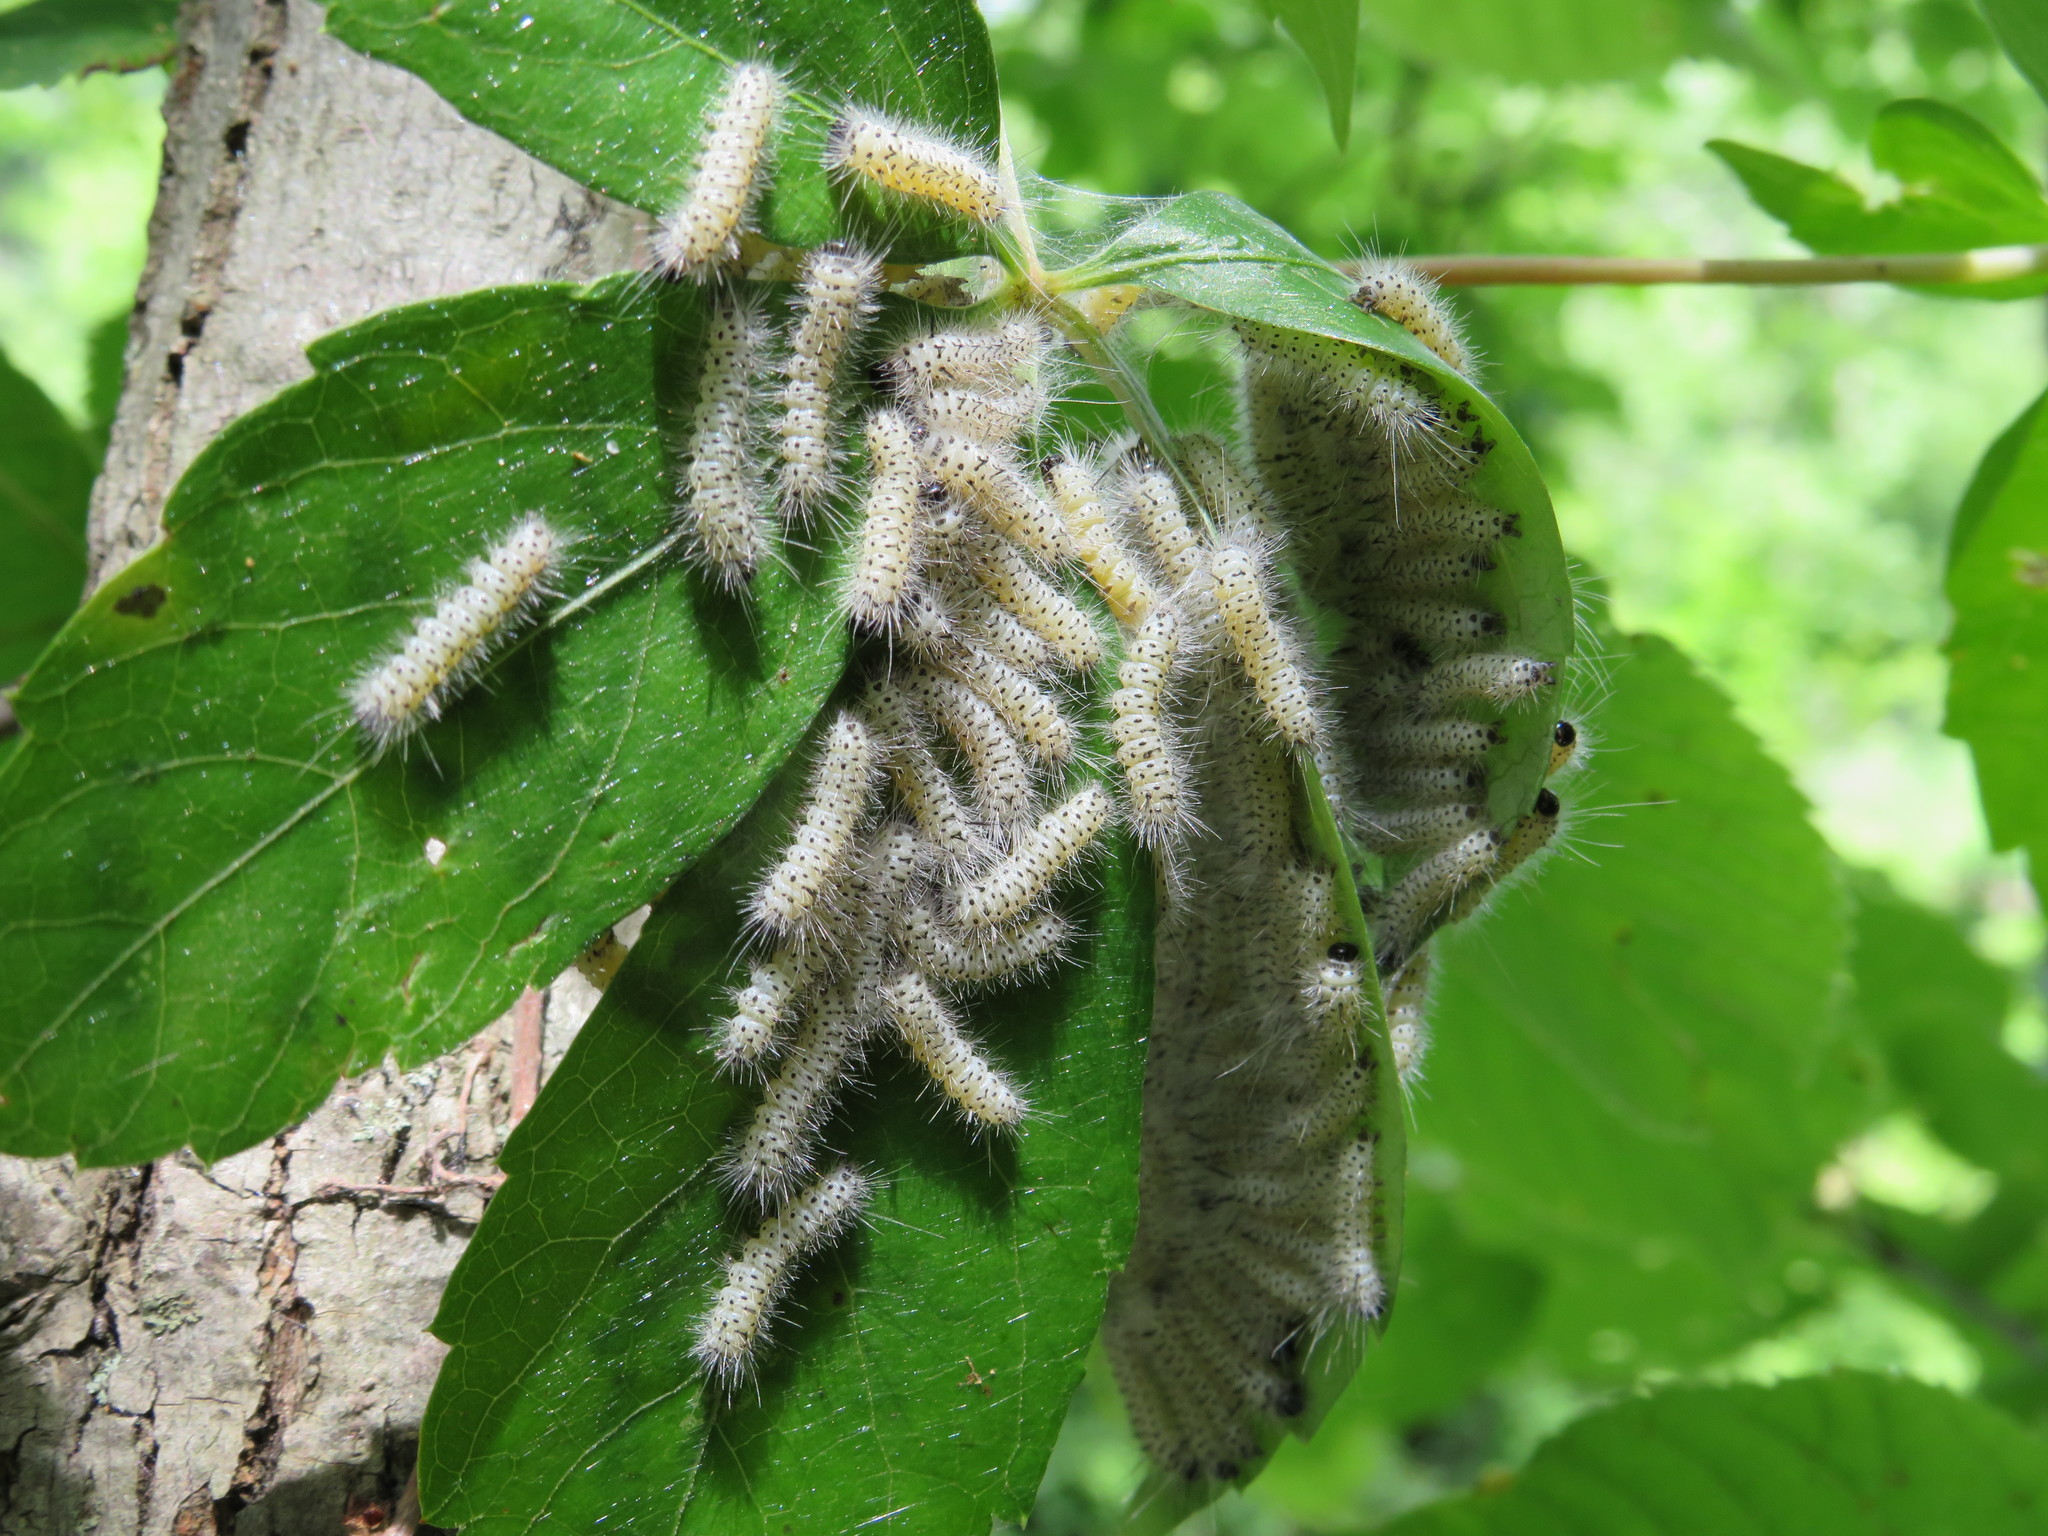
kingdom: Animalia
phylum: Arthropoda
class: Insecta
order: Lepidoptera
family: Erebidae
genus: Lophocampa
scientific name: Lophocampa caryae
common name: Hickory tussock moth
